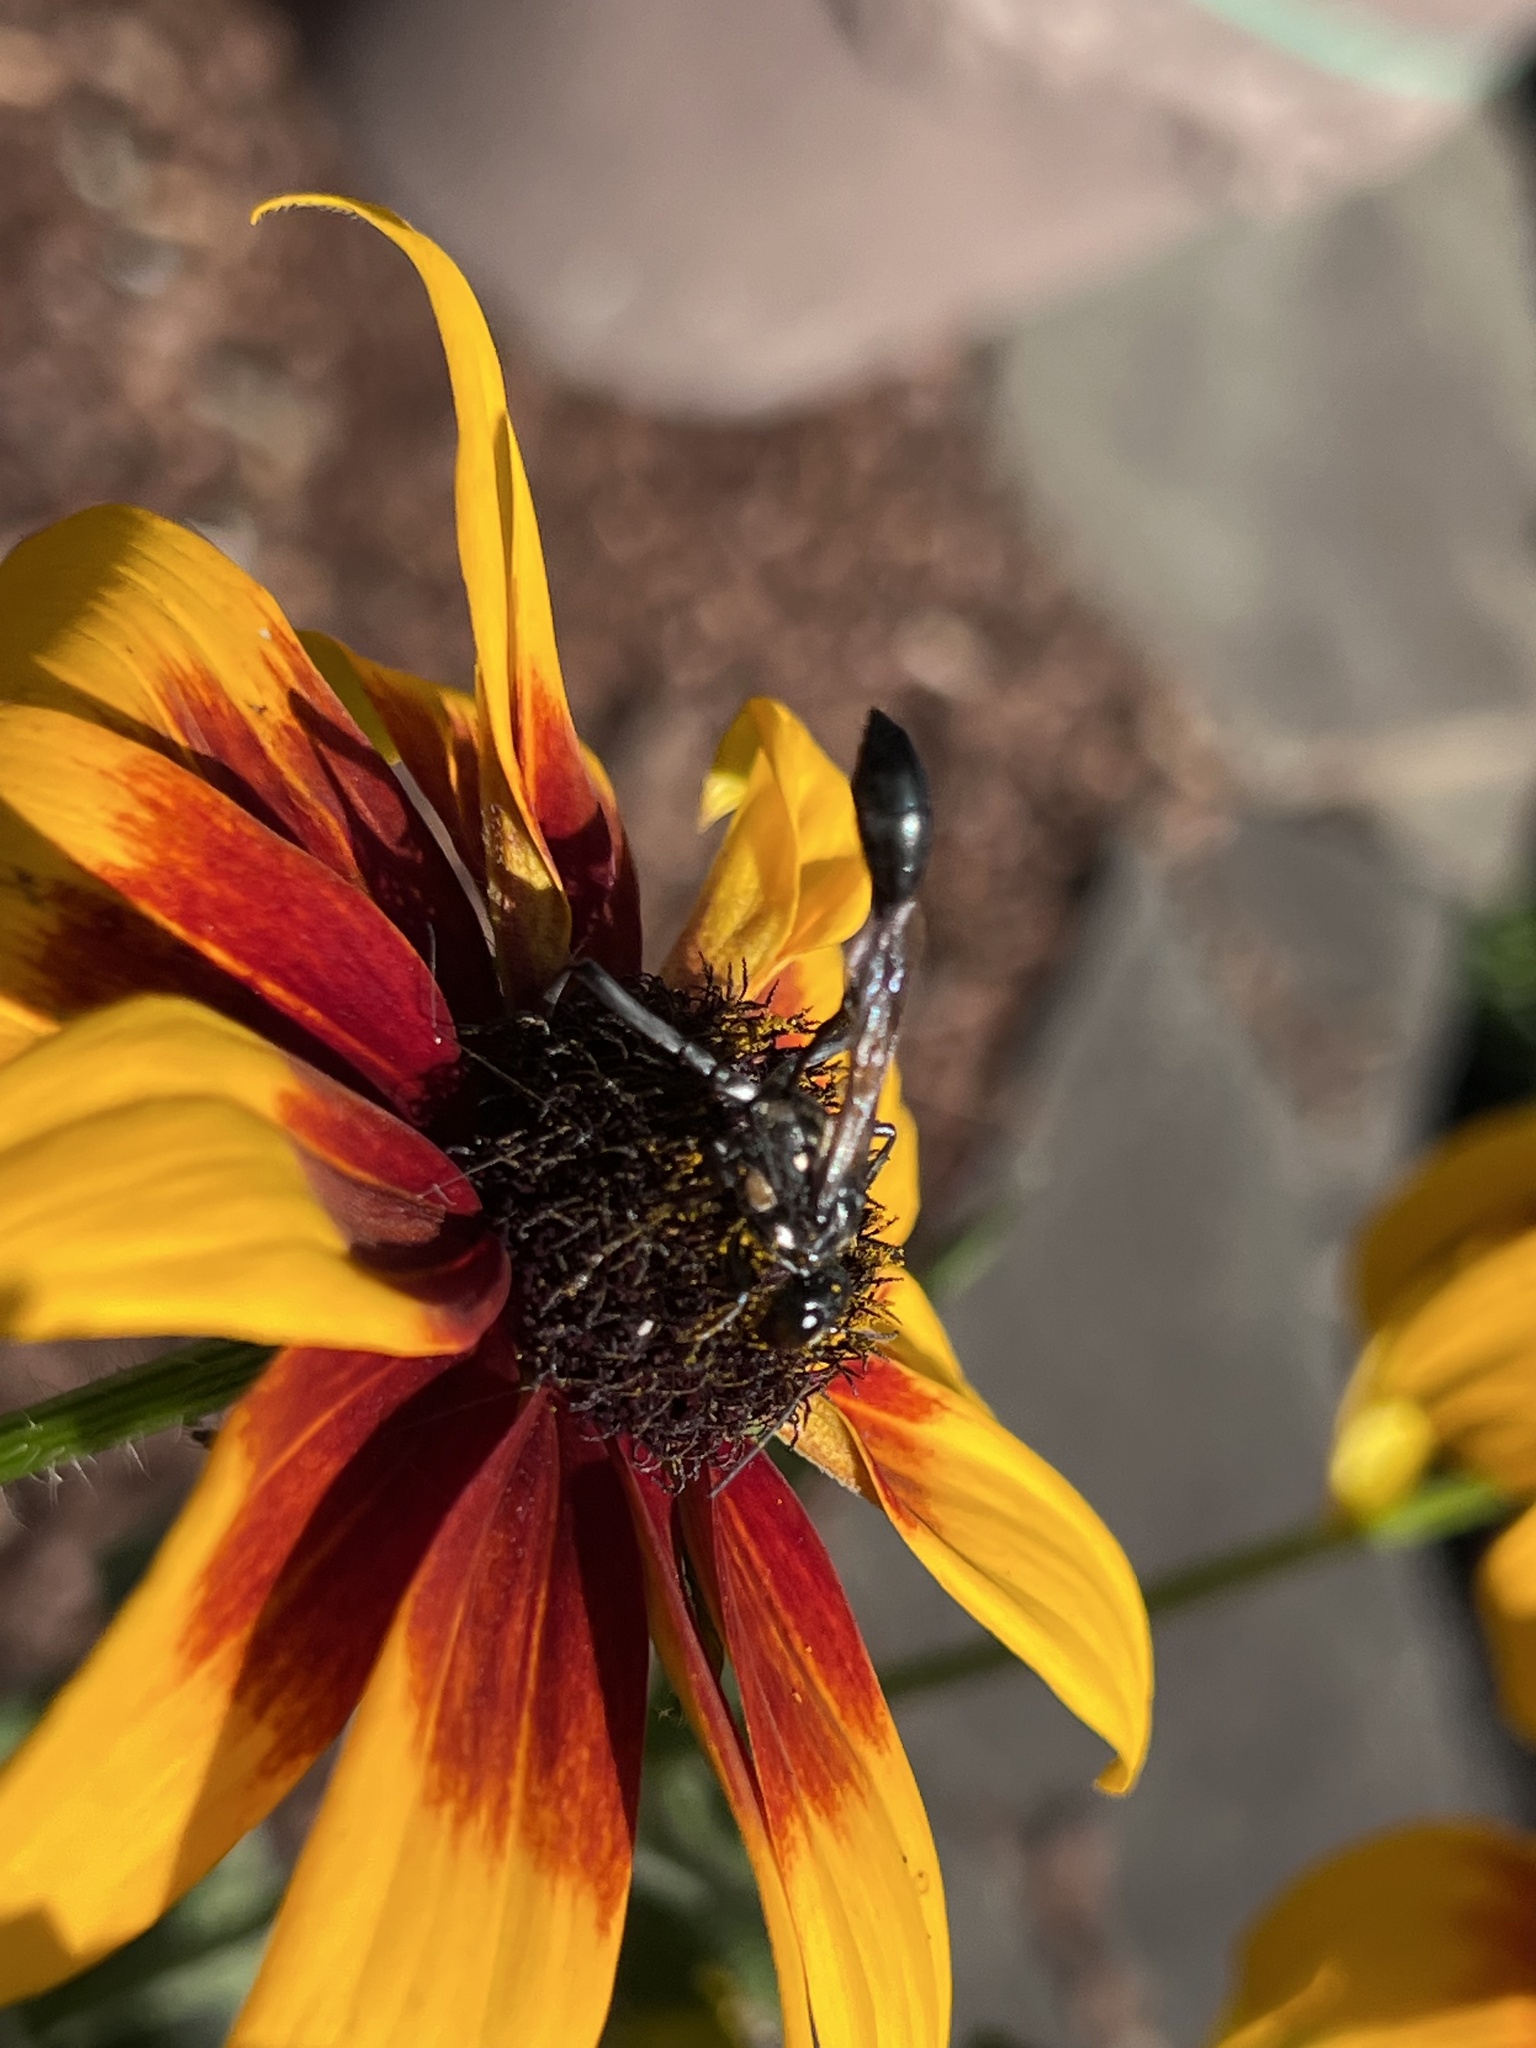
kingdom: Animalia
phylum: Arthropoda
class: Insecta
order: Hymenoptera
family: Sphecidae
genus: Eremnophila
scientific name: Eremnophila aureonotata
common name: Gold-marked thread-waisted wasp
